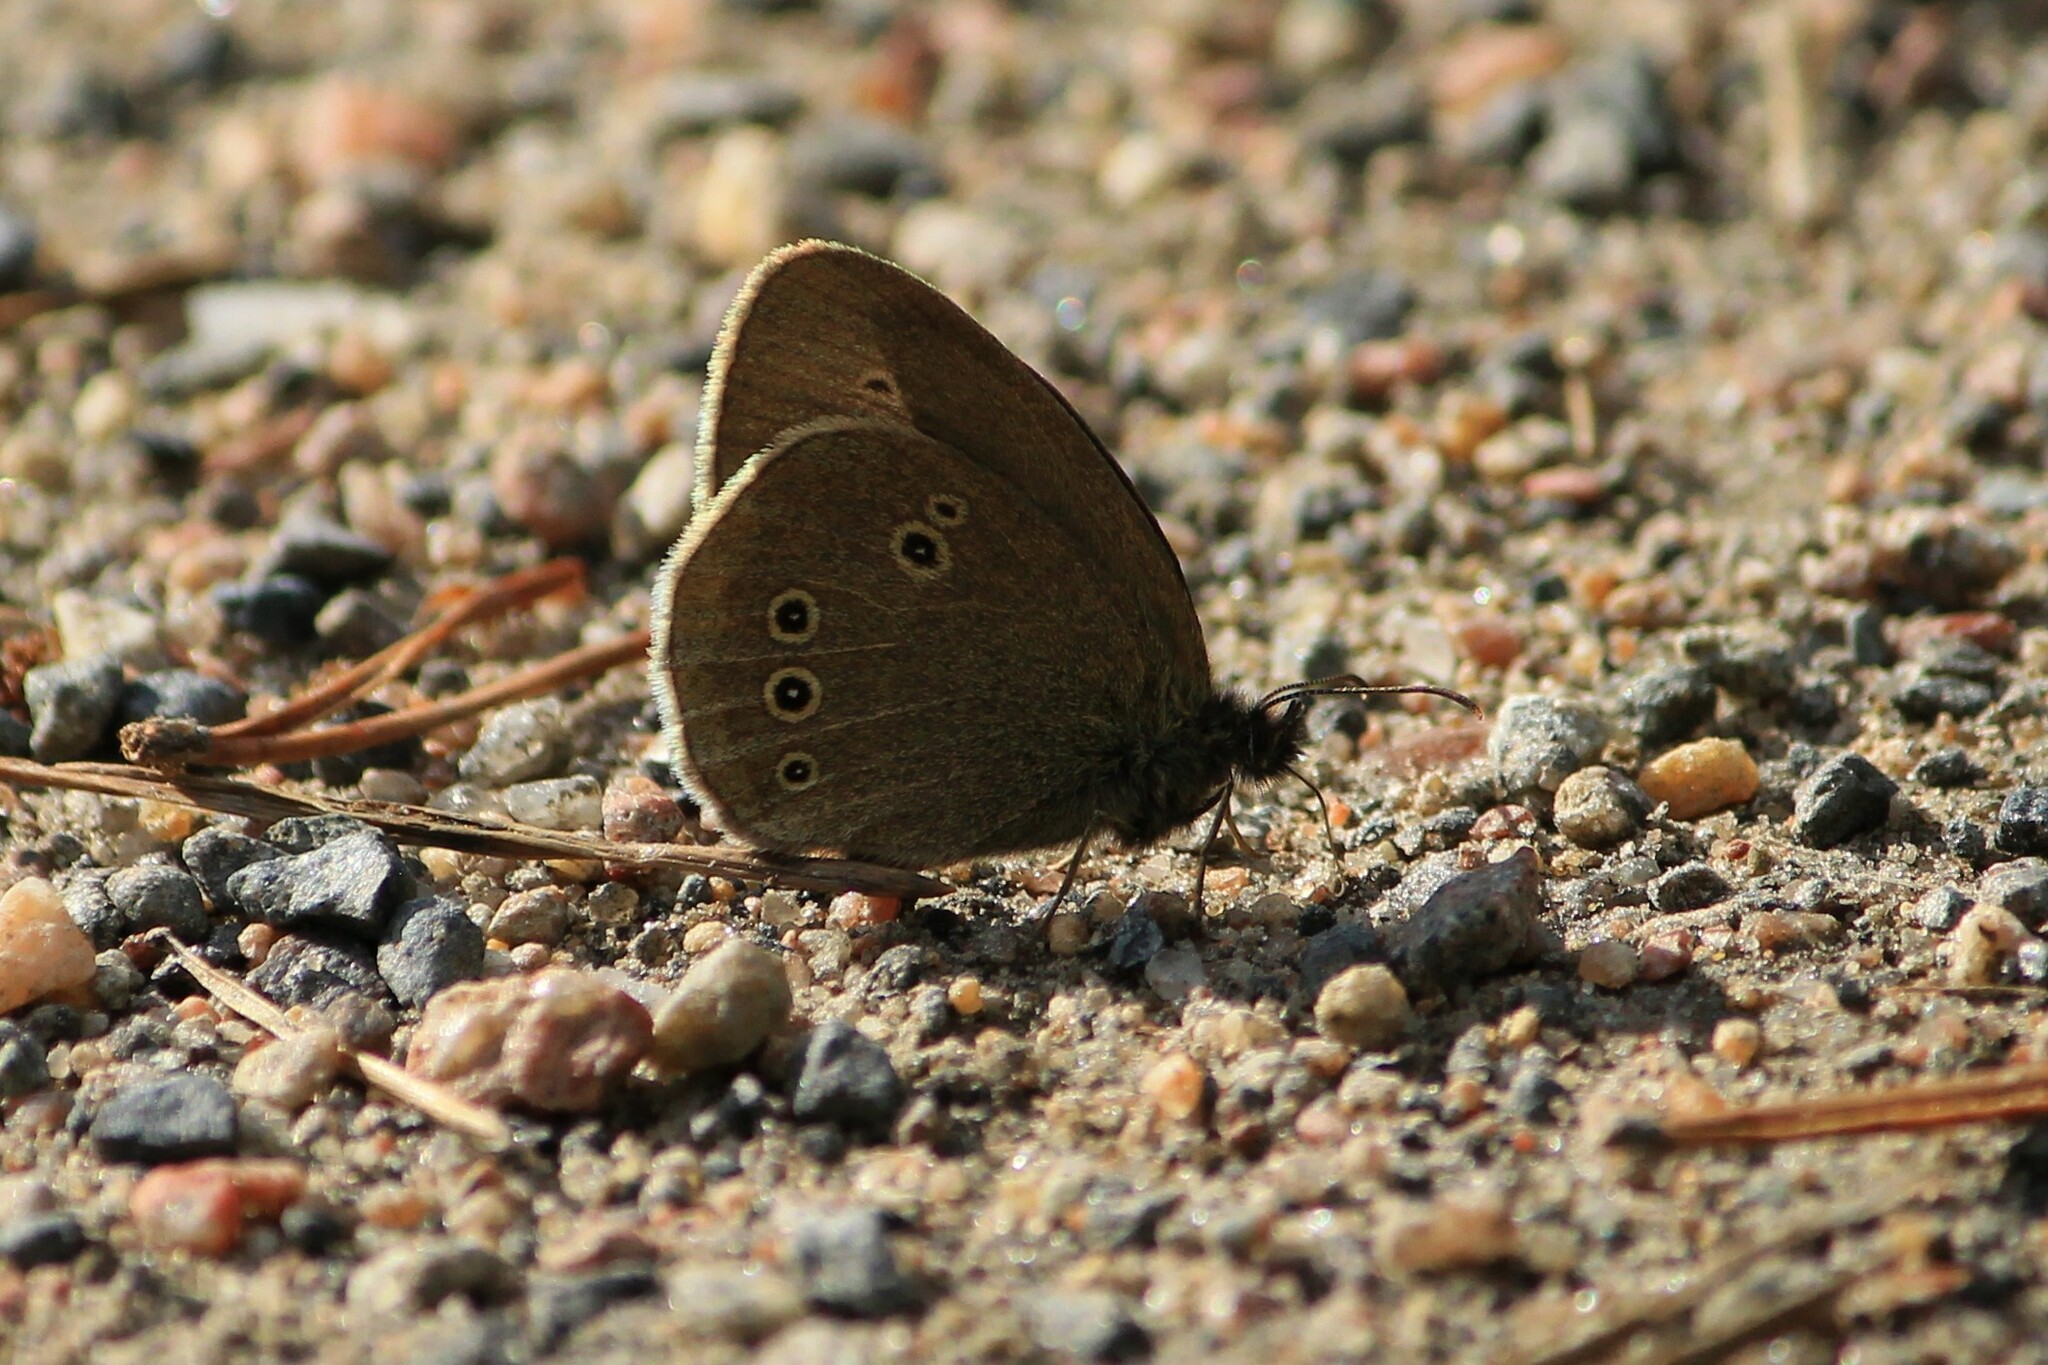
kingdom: Animalia
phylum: Arthropoda
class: Insecta
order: Lepidoptera
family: Nymphalidae
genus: Aphantopus
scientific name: Aphantopus hyperantus
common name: Ringlet
